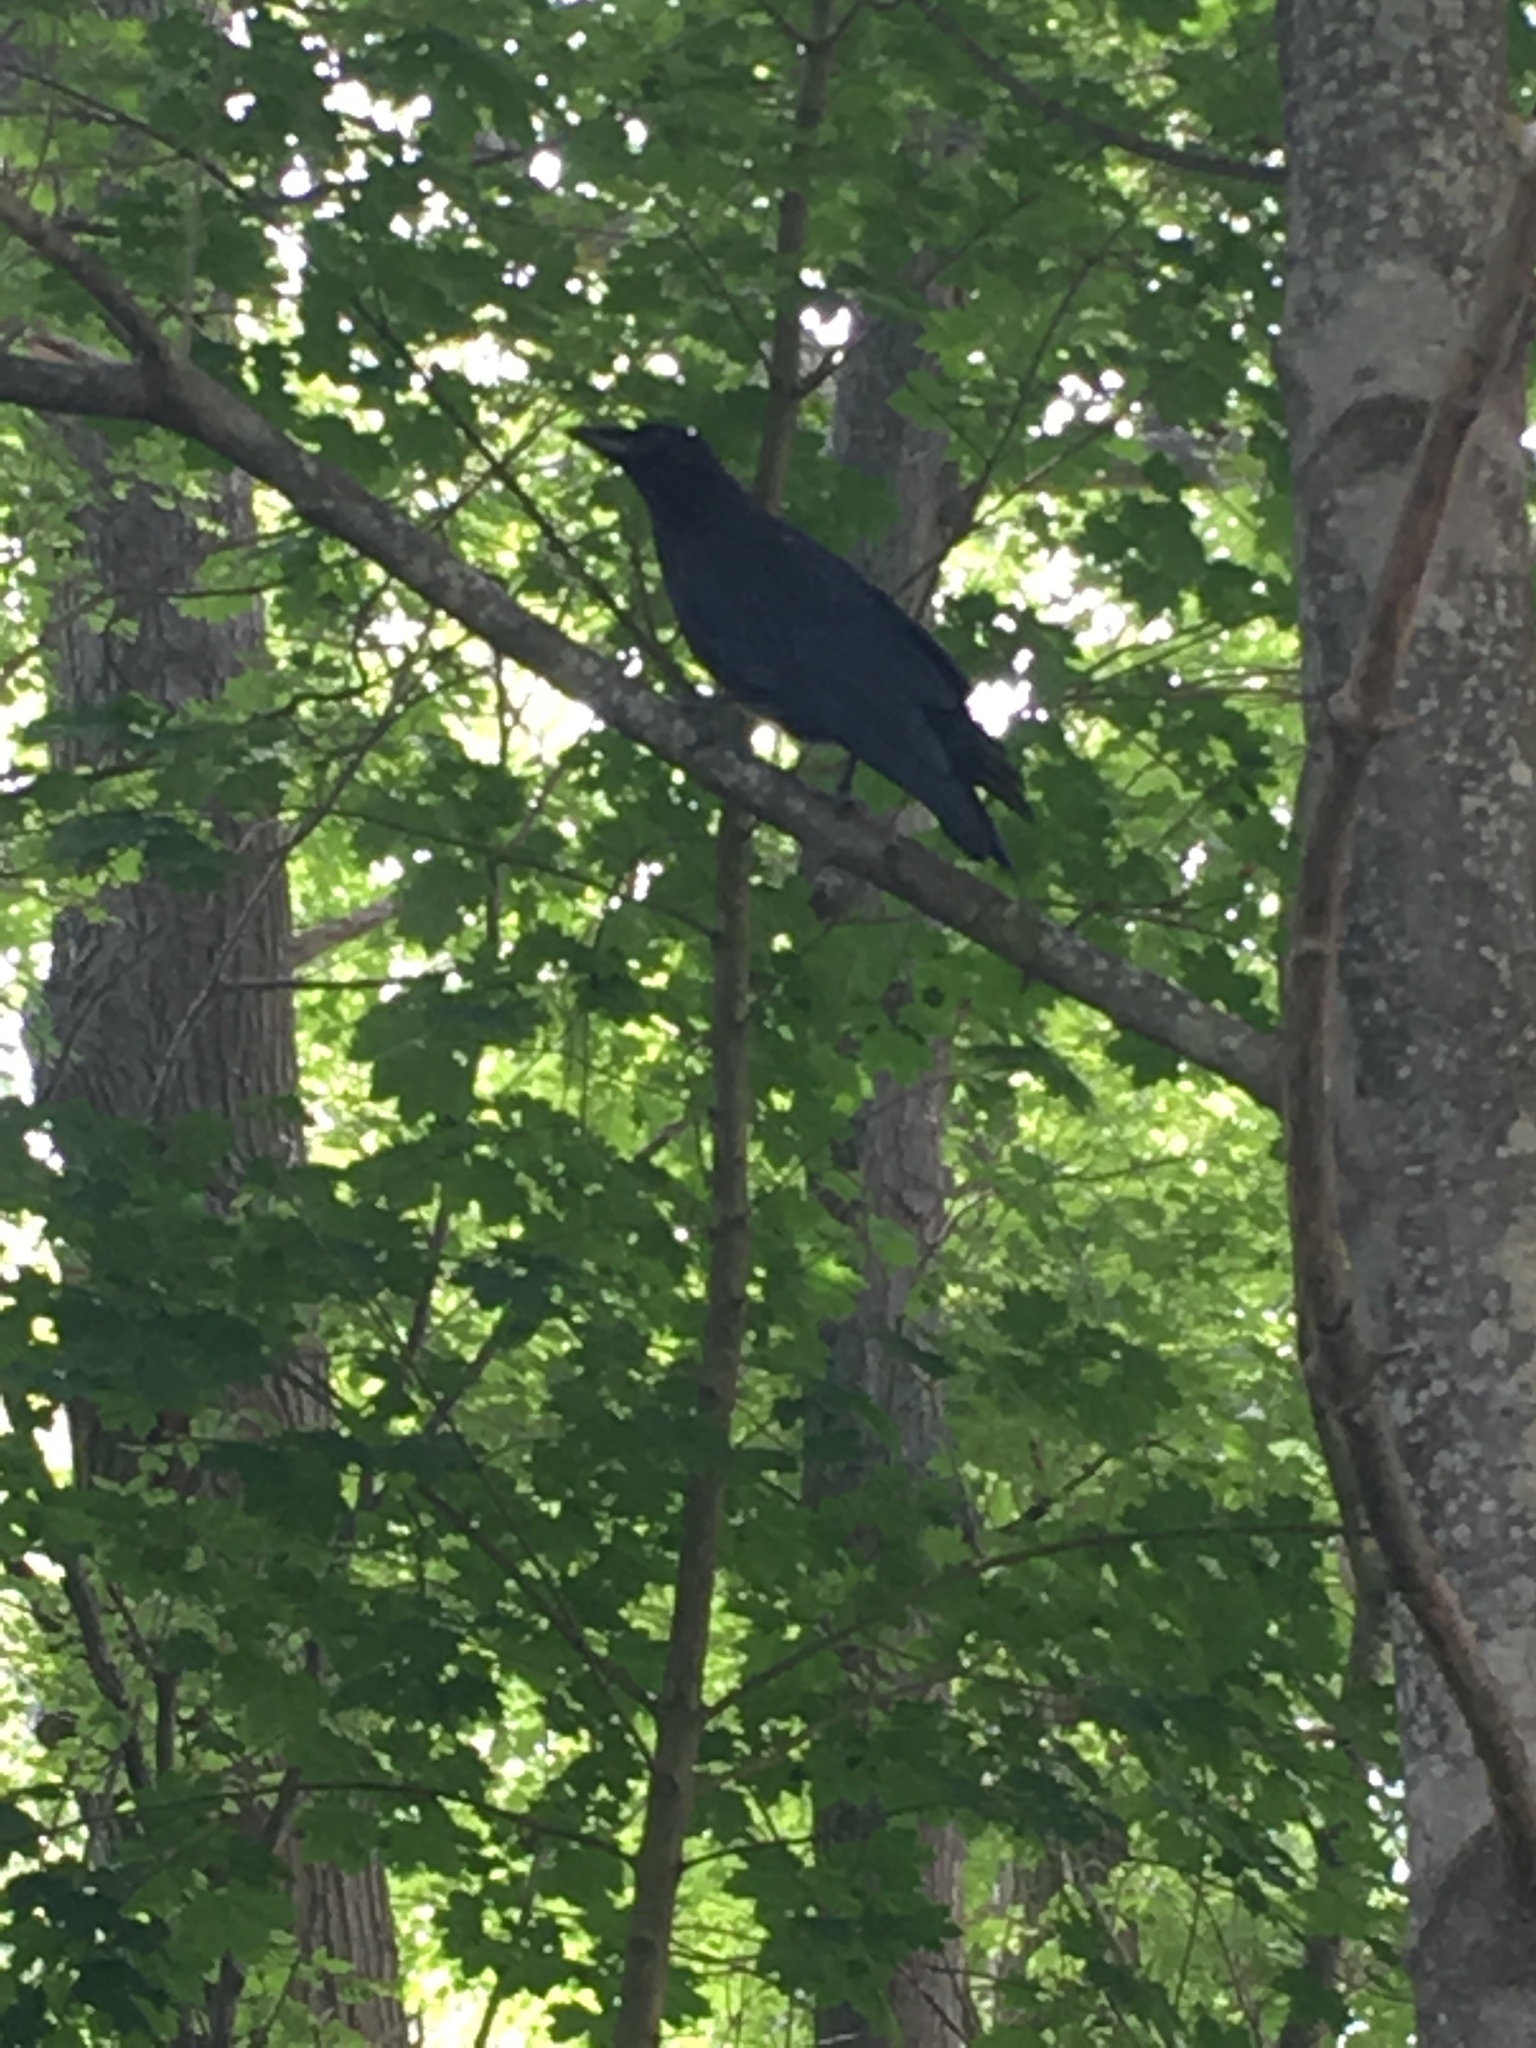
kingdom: Animalia
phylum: Chordata
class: Aves
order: Passeriformes
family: Corvidae
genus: Corvus
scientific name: Corvus brachyrhynchos
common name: American crow
